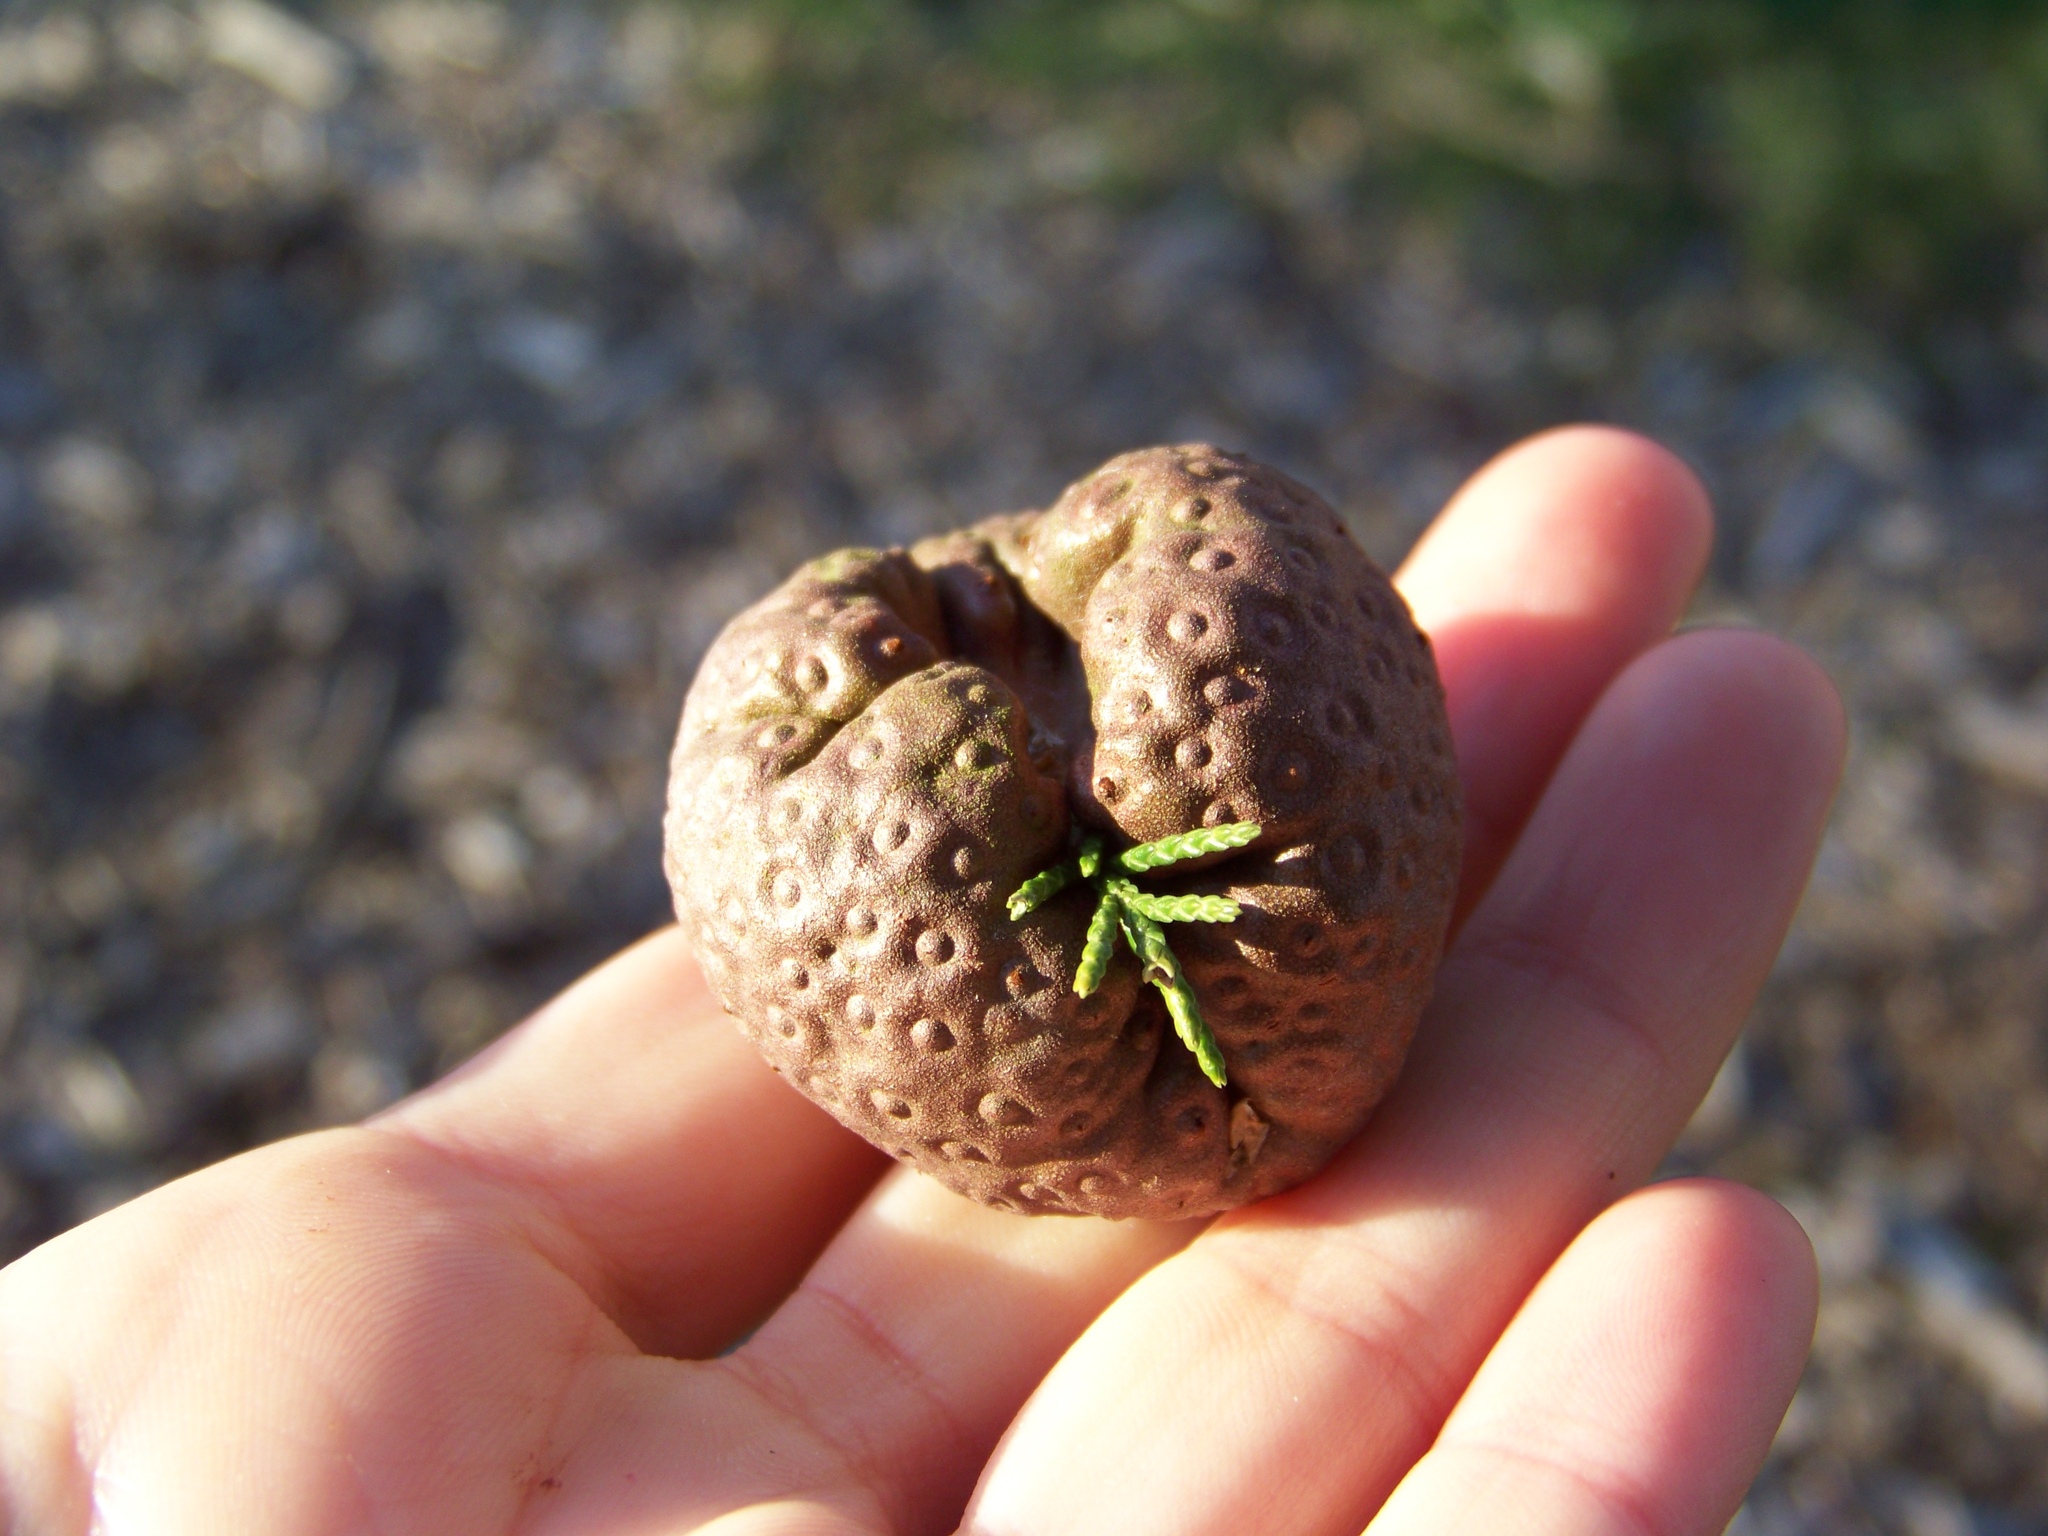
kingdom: Fungi
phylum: Basidiomycota
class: Pucciniomycetes
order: Pucciniales
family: Gymnosporangiaceae
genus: Gymnosporangium
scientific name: Gymnosporangium juniperi-virginianae
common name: Juniper-apple rust
